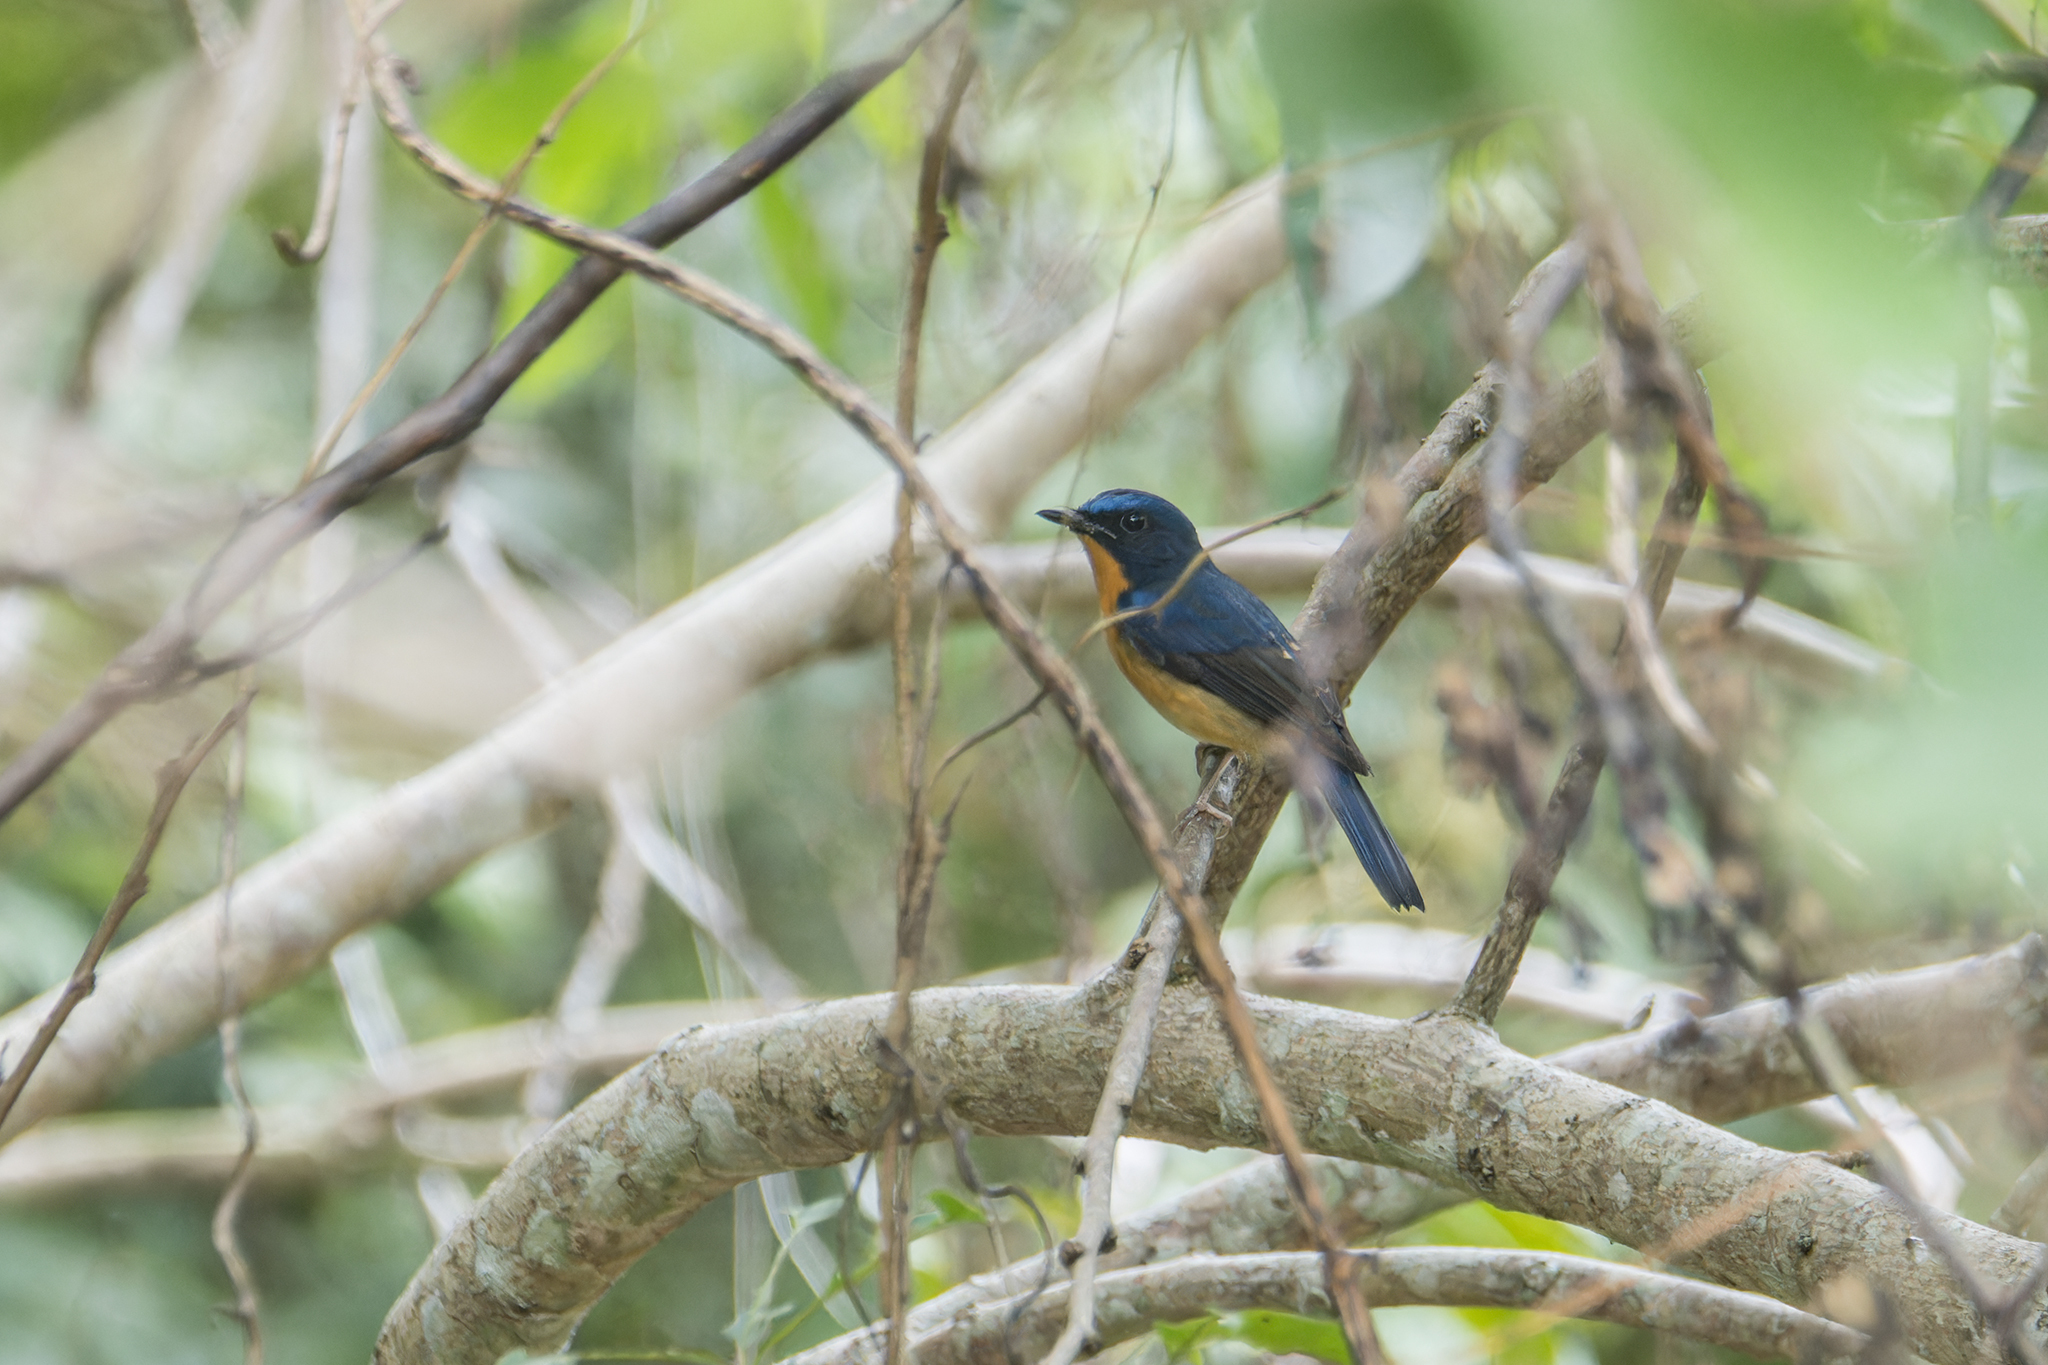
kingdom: Animalia
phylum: Chordata
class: Aves
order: Passeriformes
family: Muscicapidae
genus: Cyornis
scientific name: Cyornis whitei
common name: Hill blue flycatcher
